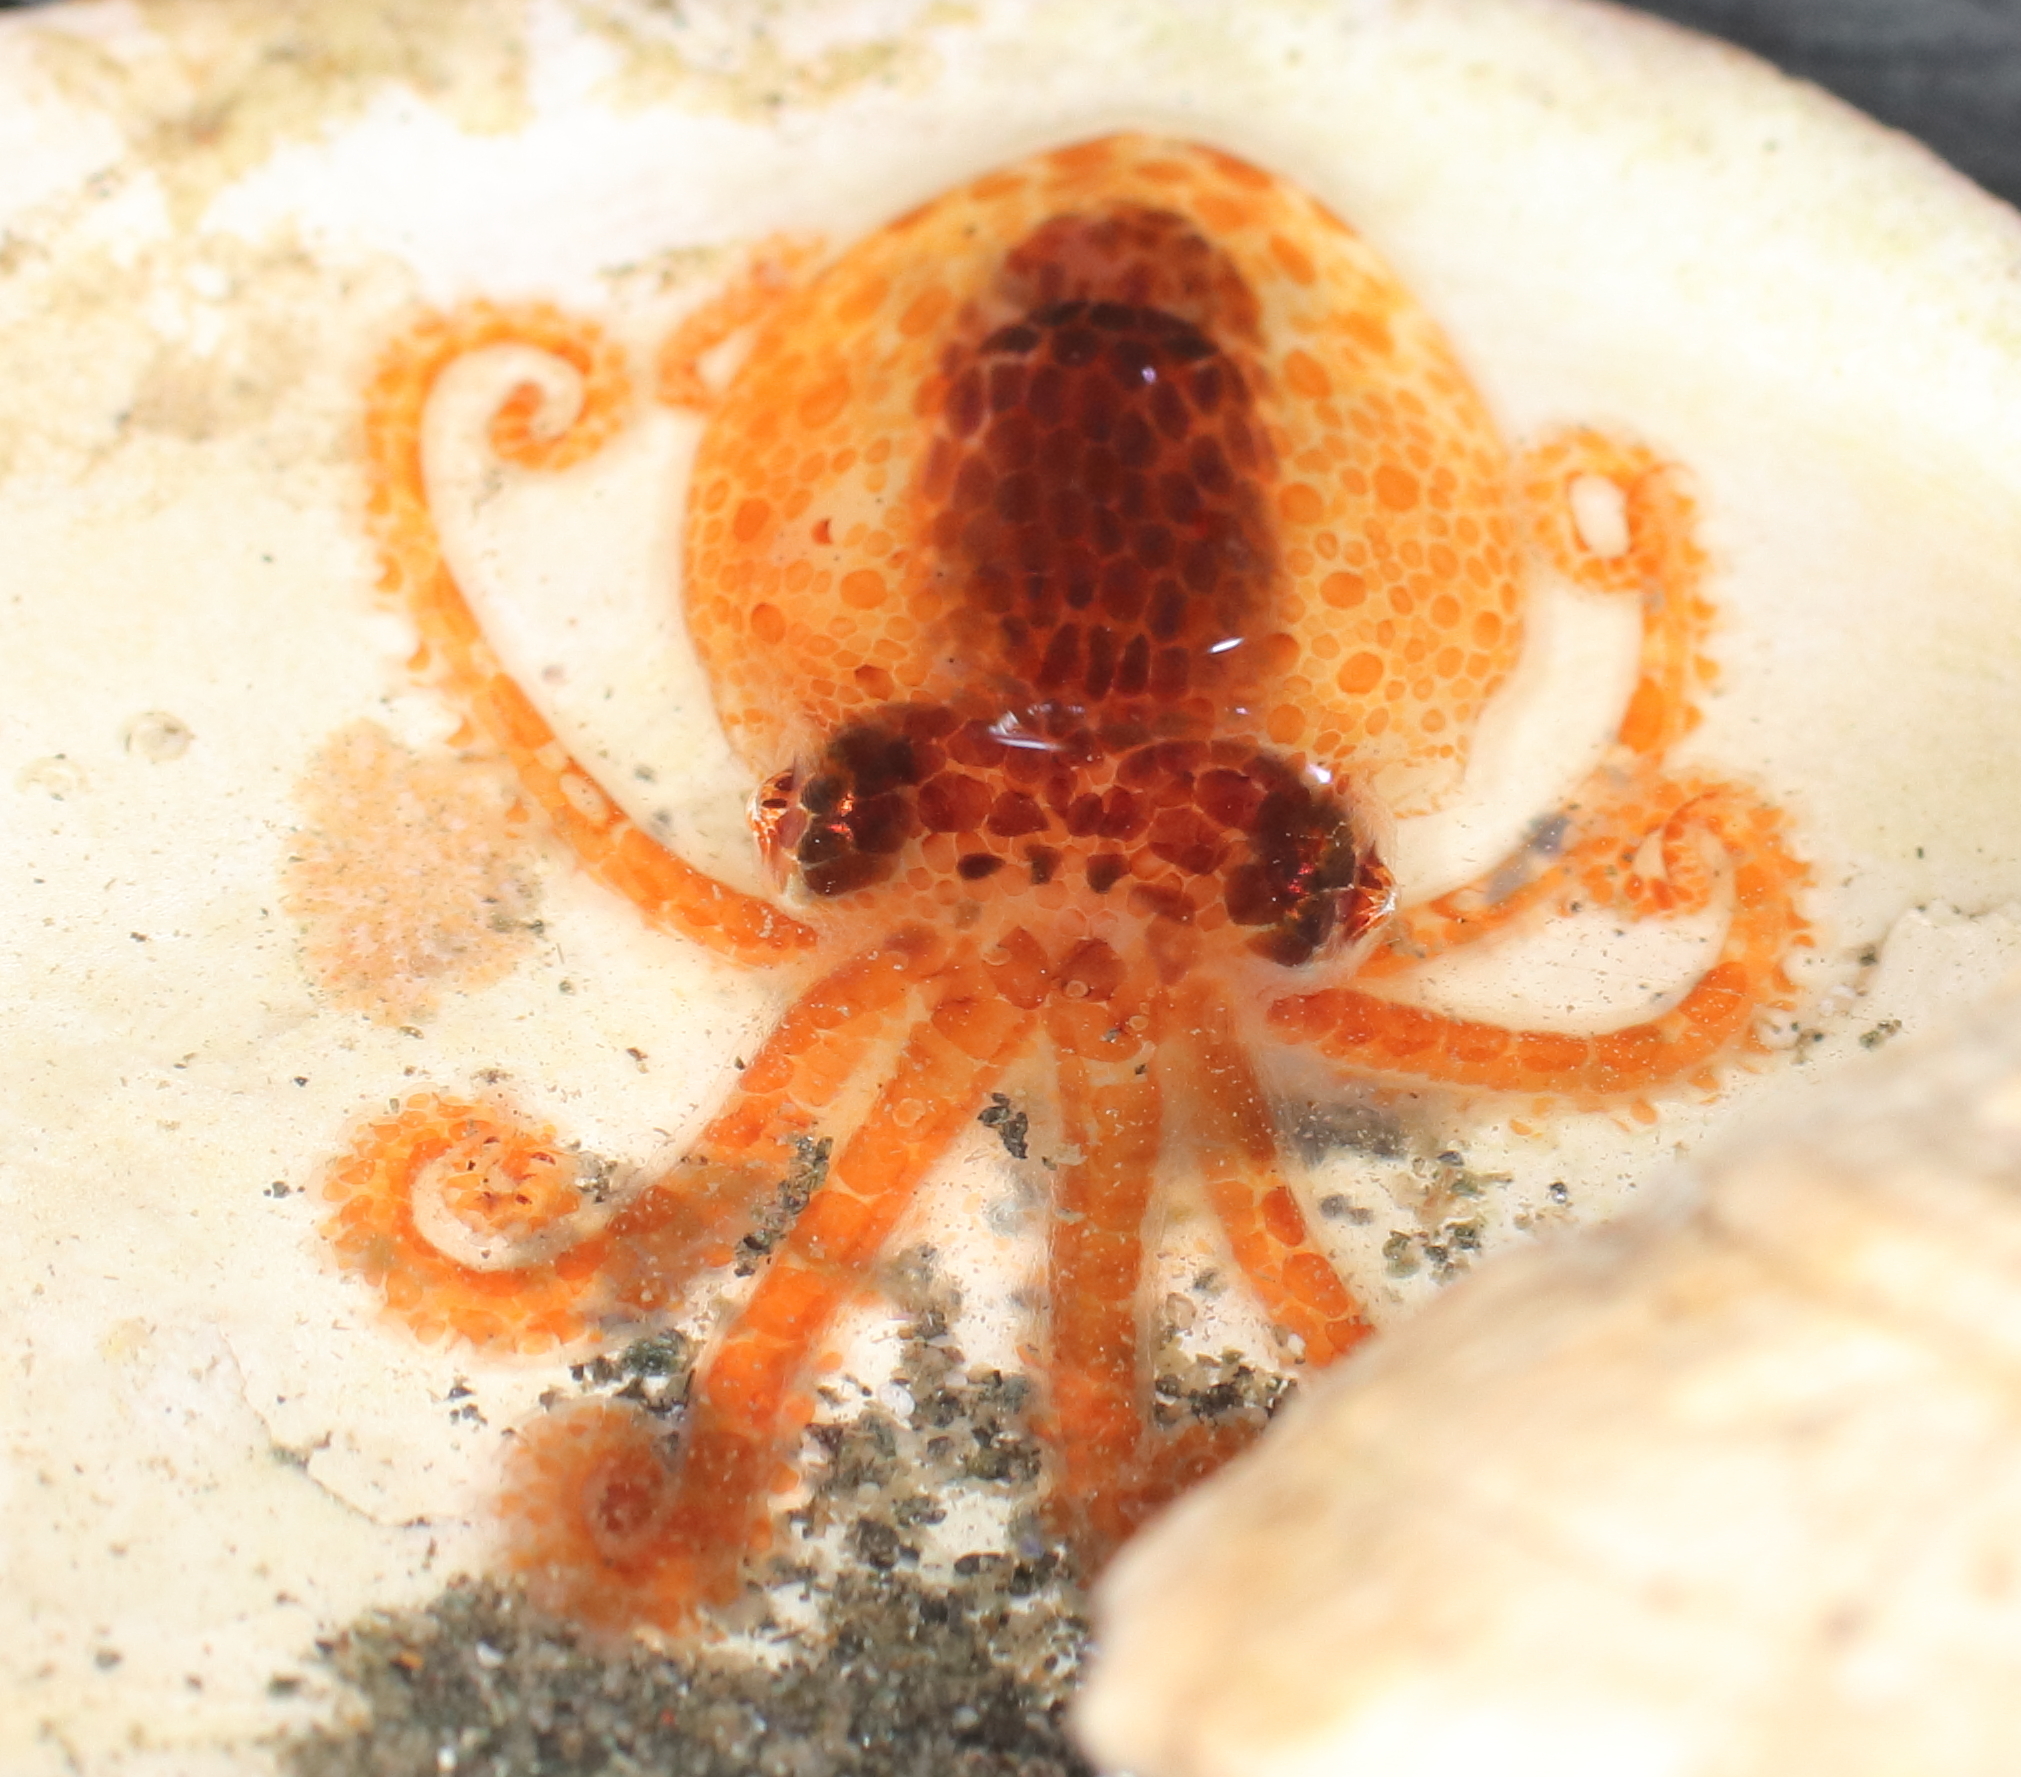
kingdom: Animalia
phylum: Mollusca
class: Cephalopoda
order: Octopoda
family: Enteroctopodidae
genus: Enteroctopus
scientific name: Enteroctopus dofleini
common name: Giant north pacific octopus
